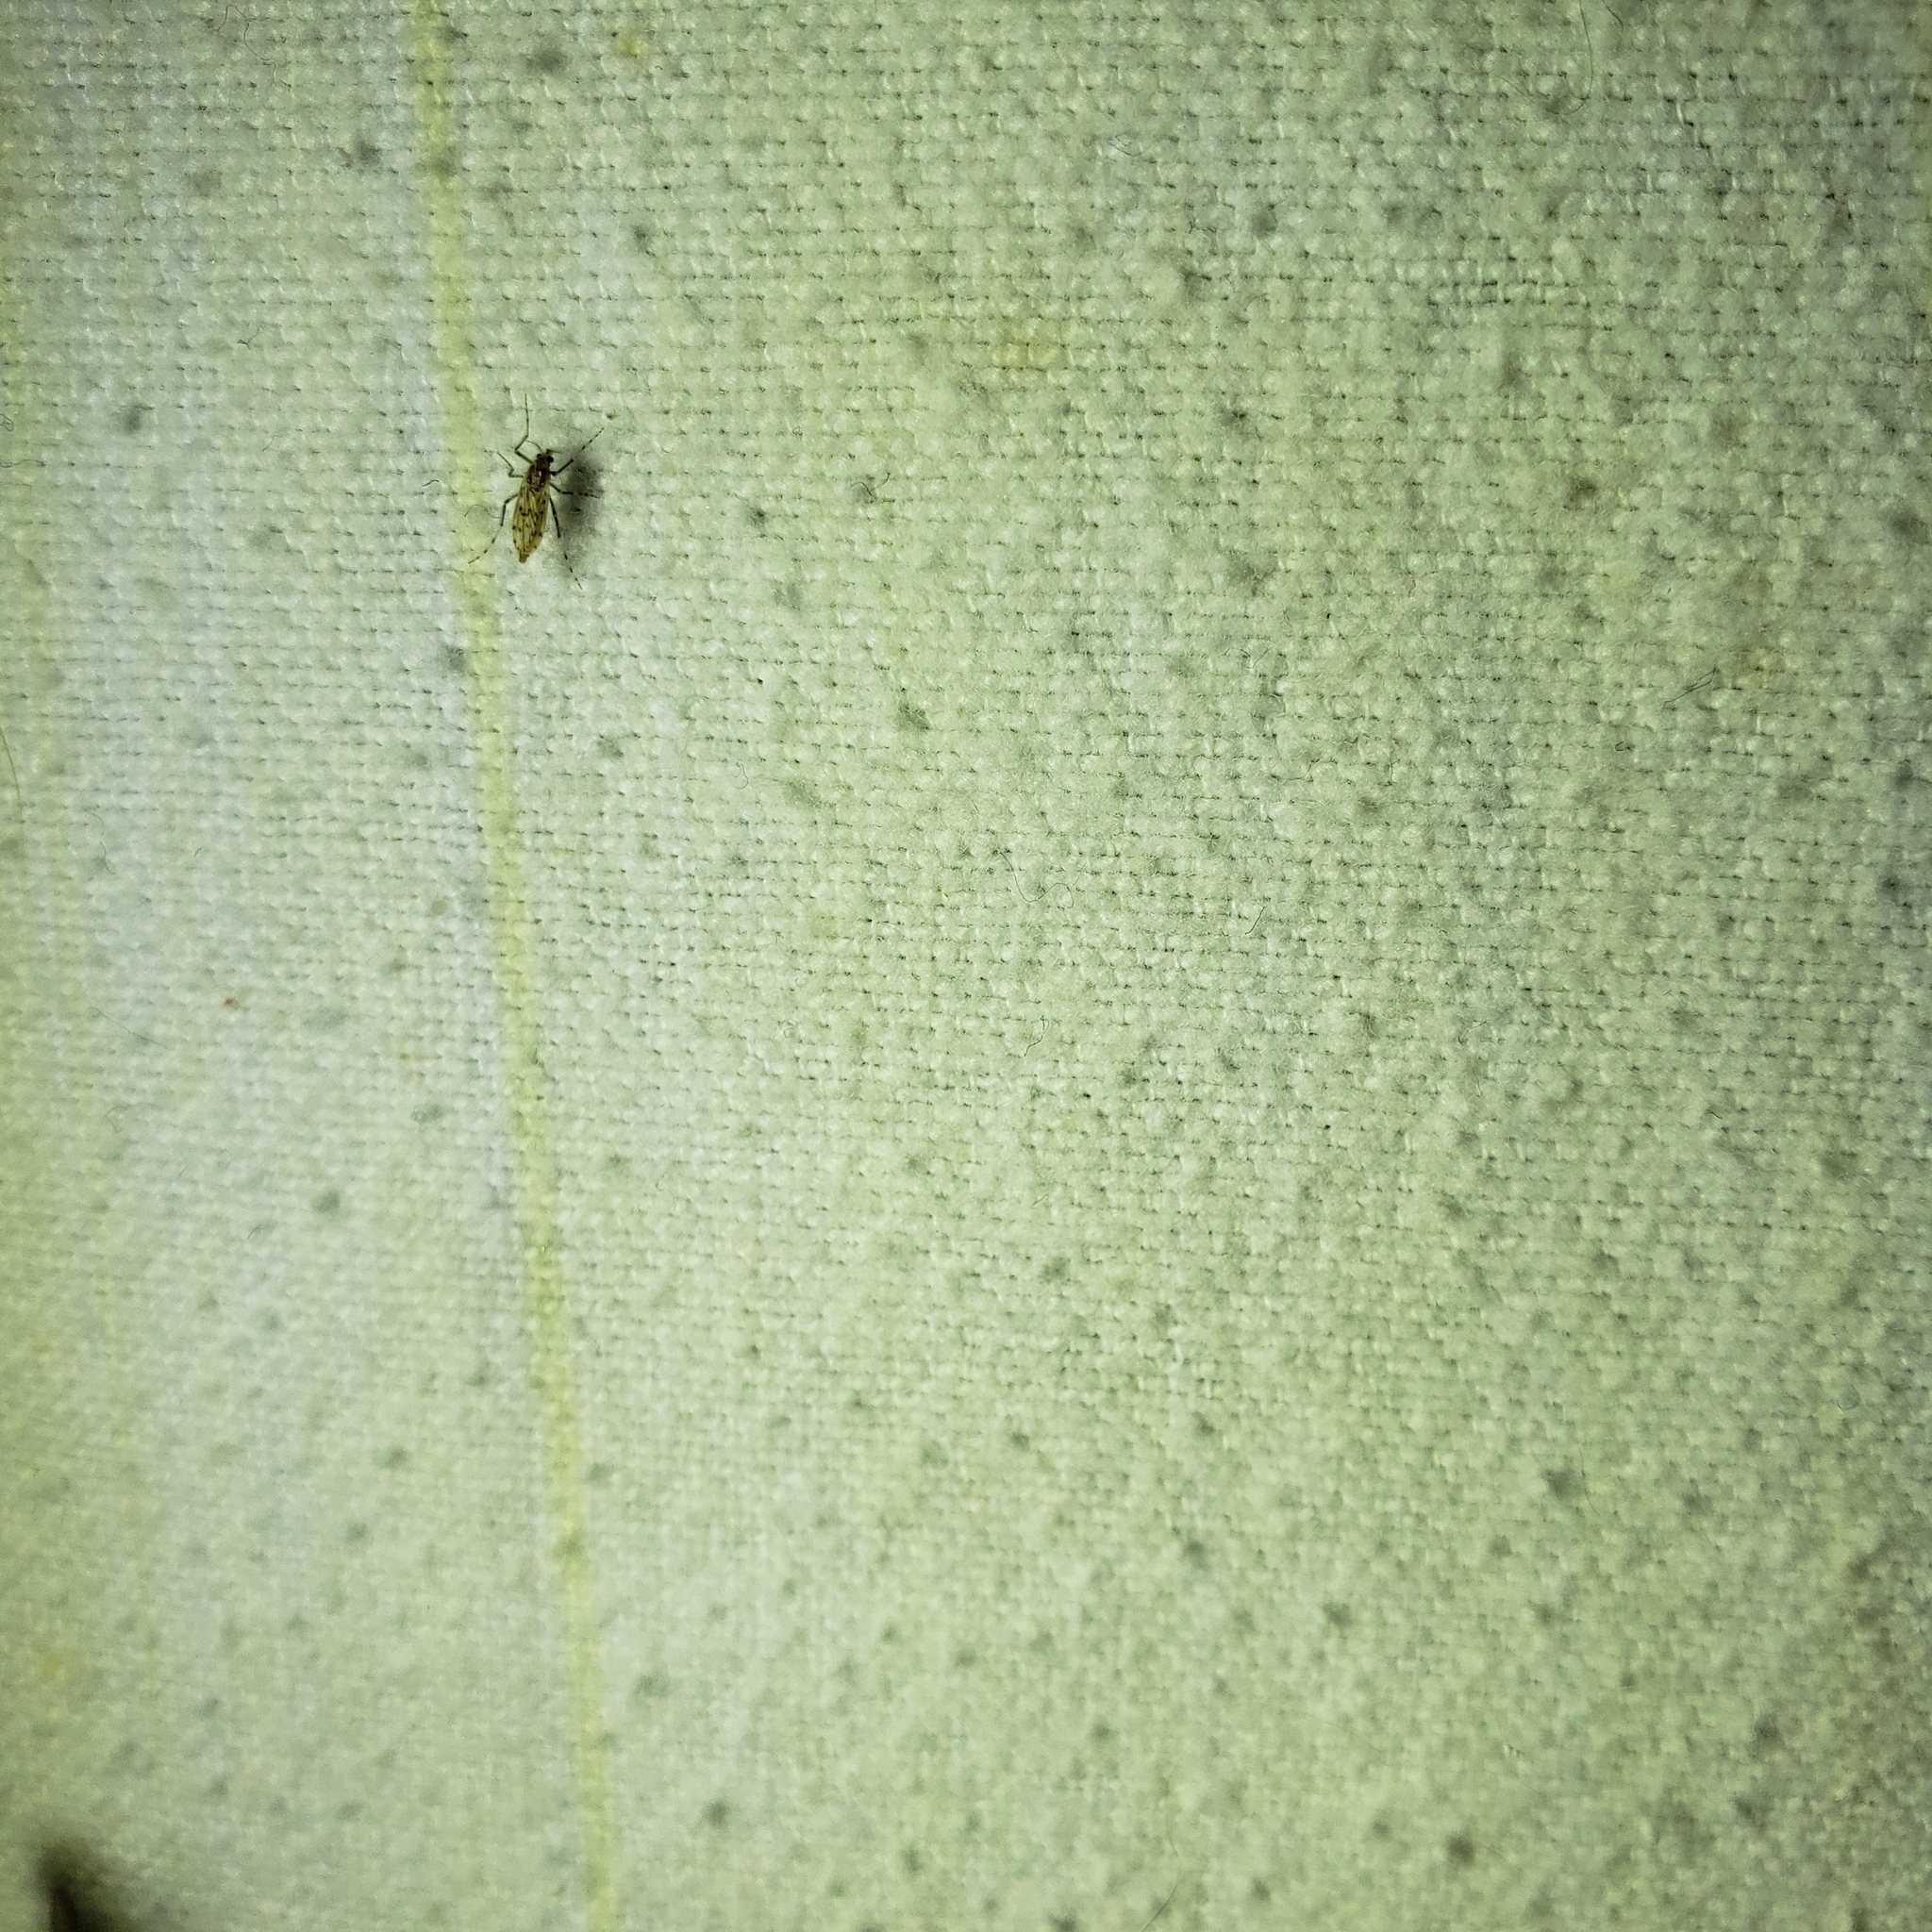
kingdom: Animalia
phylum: Arthropoda
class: Insecta
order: Diptera
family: Chaoboridae
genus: Chaoborus
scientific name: Chaoborus punctipennis
